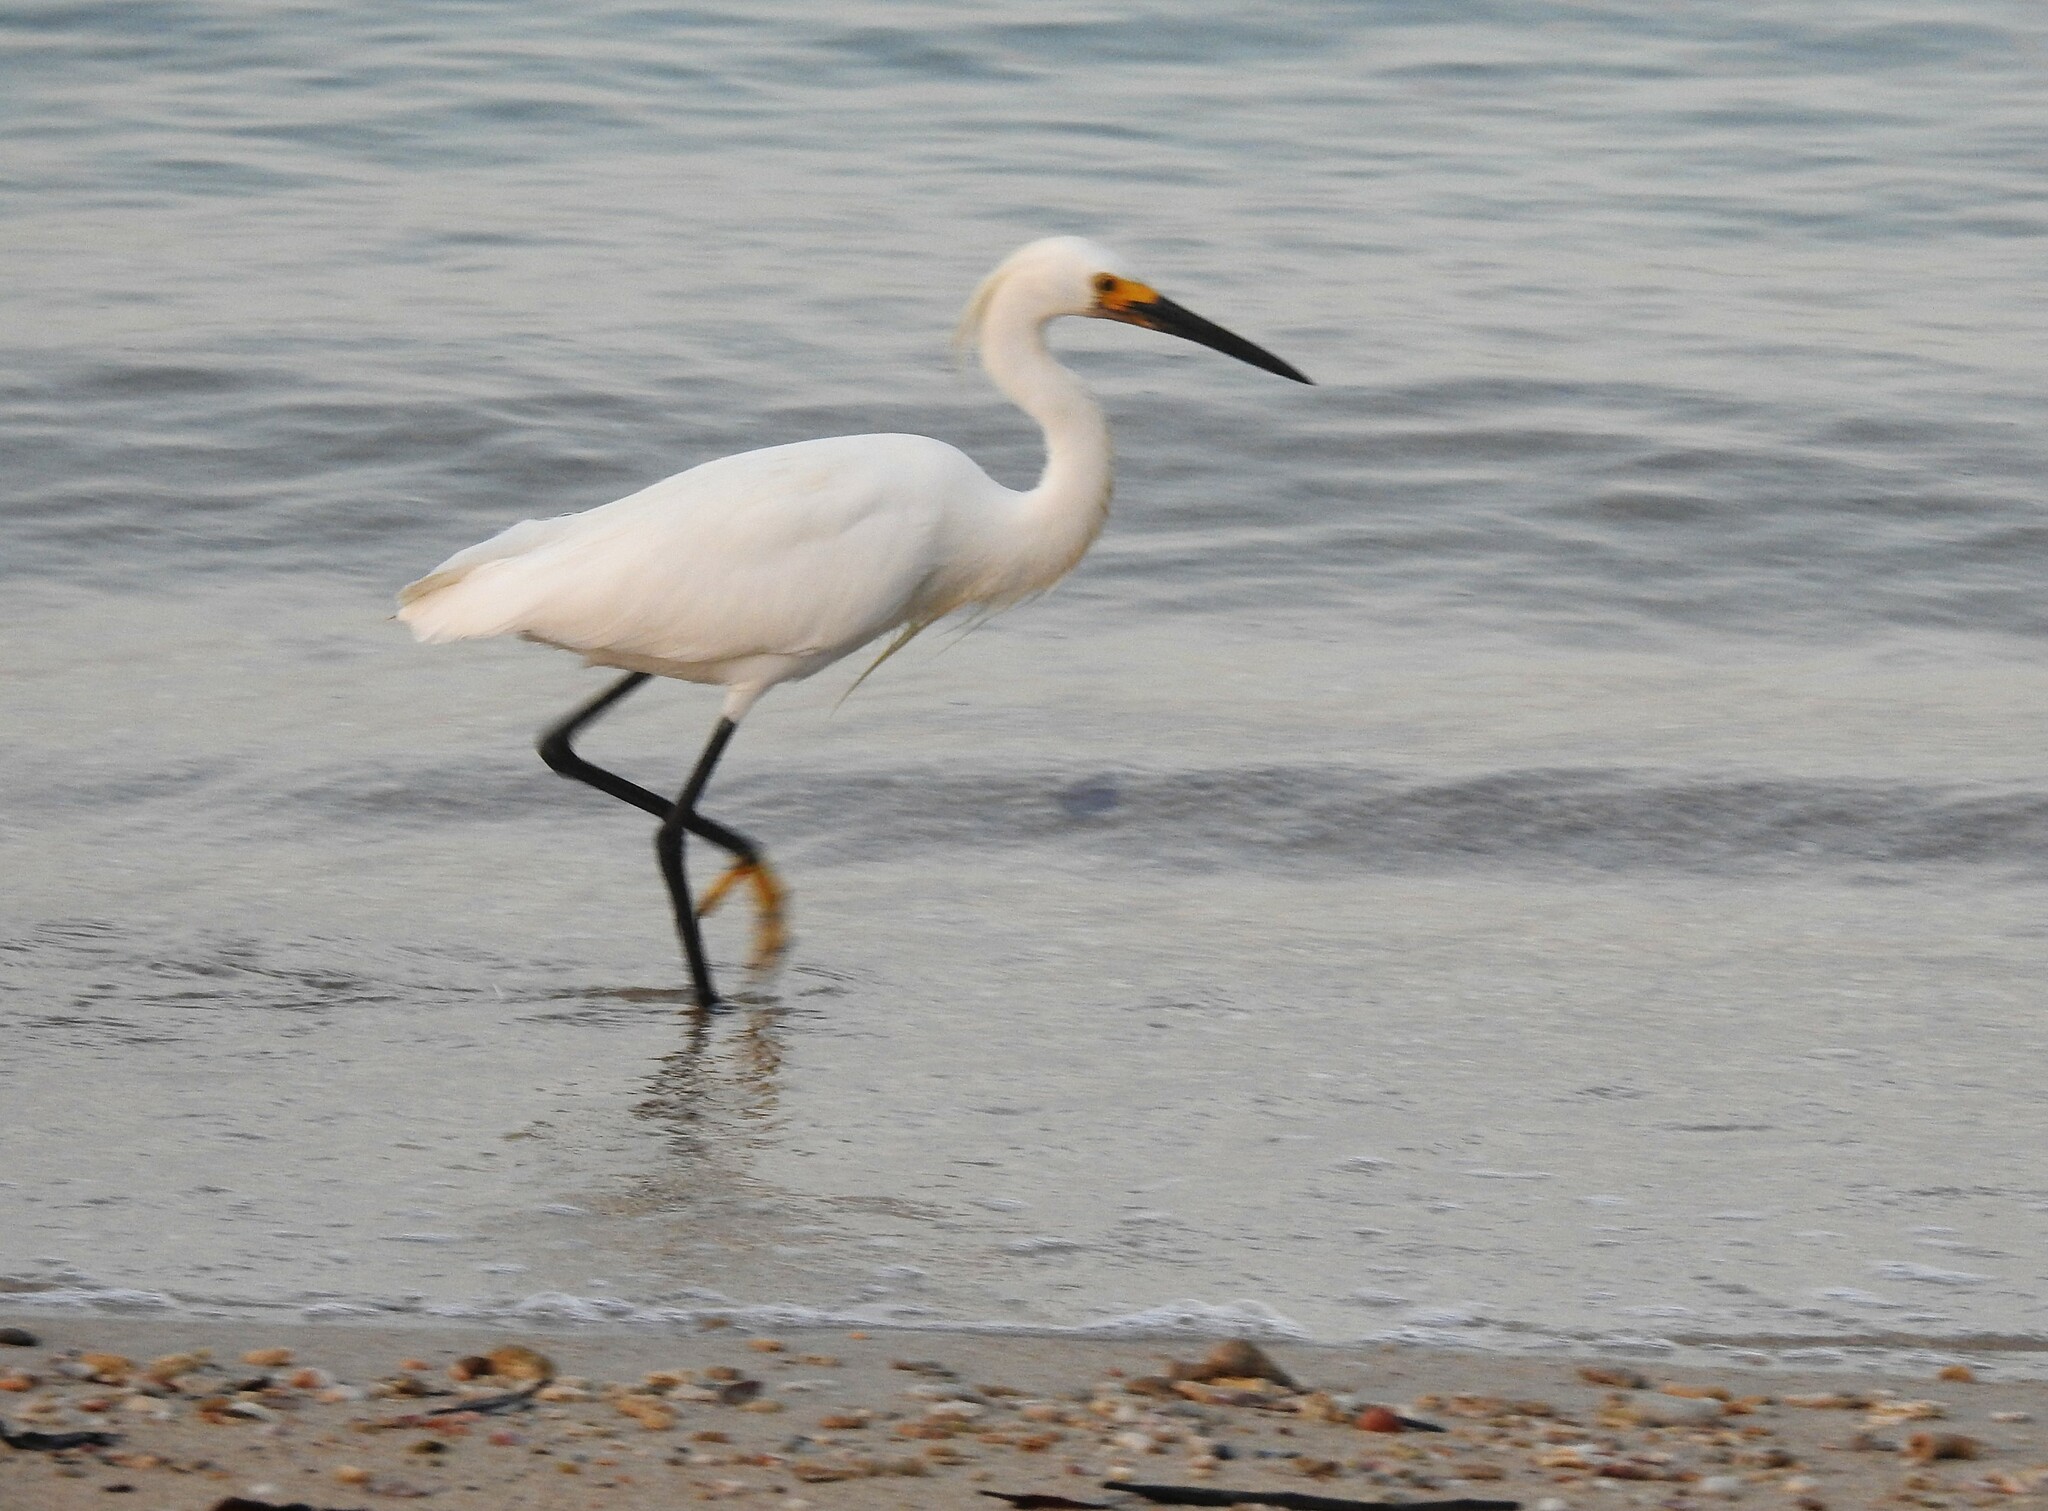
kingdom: Animalia
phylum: Chordata
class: Aves
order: Pelecaniformes
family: Ardeidae
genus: Egretta
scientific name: Egretta thula
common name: Snowy egret
